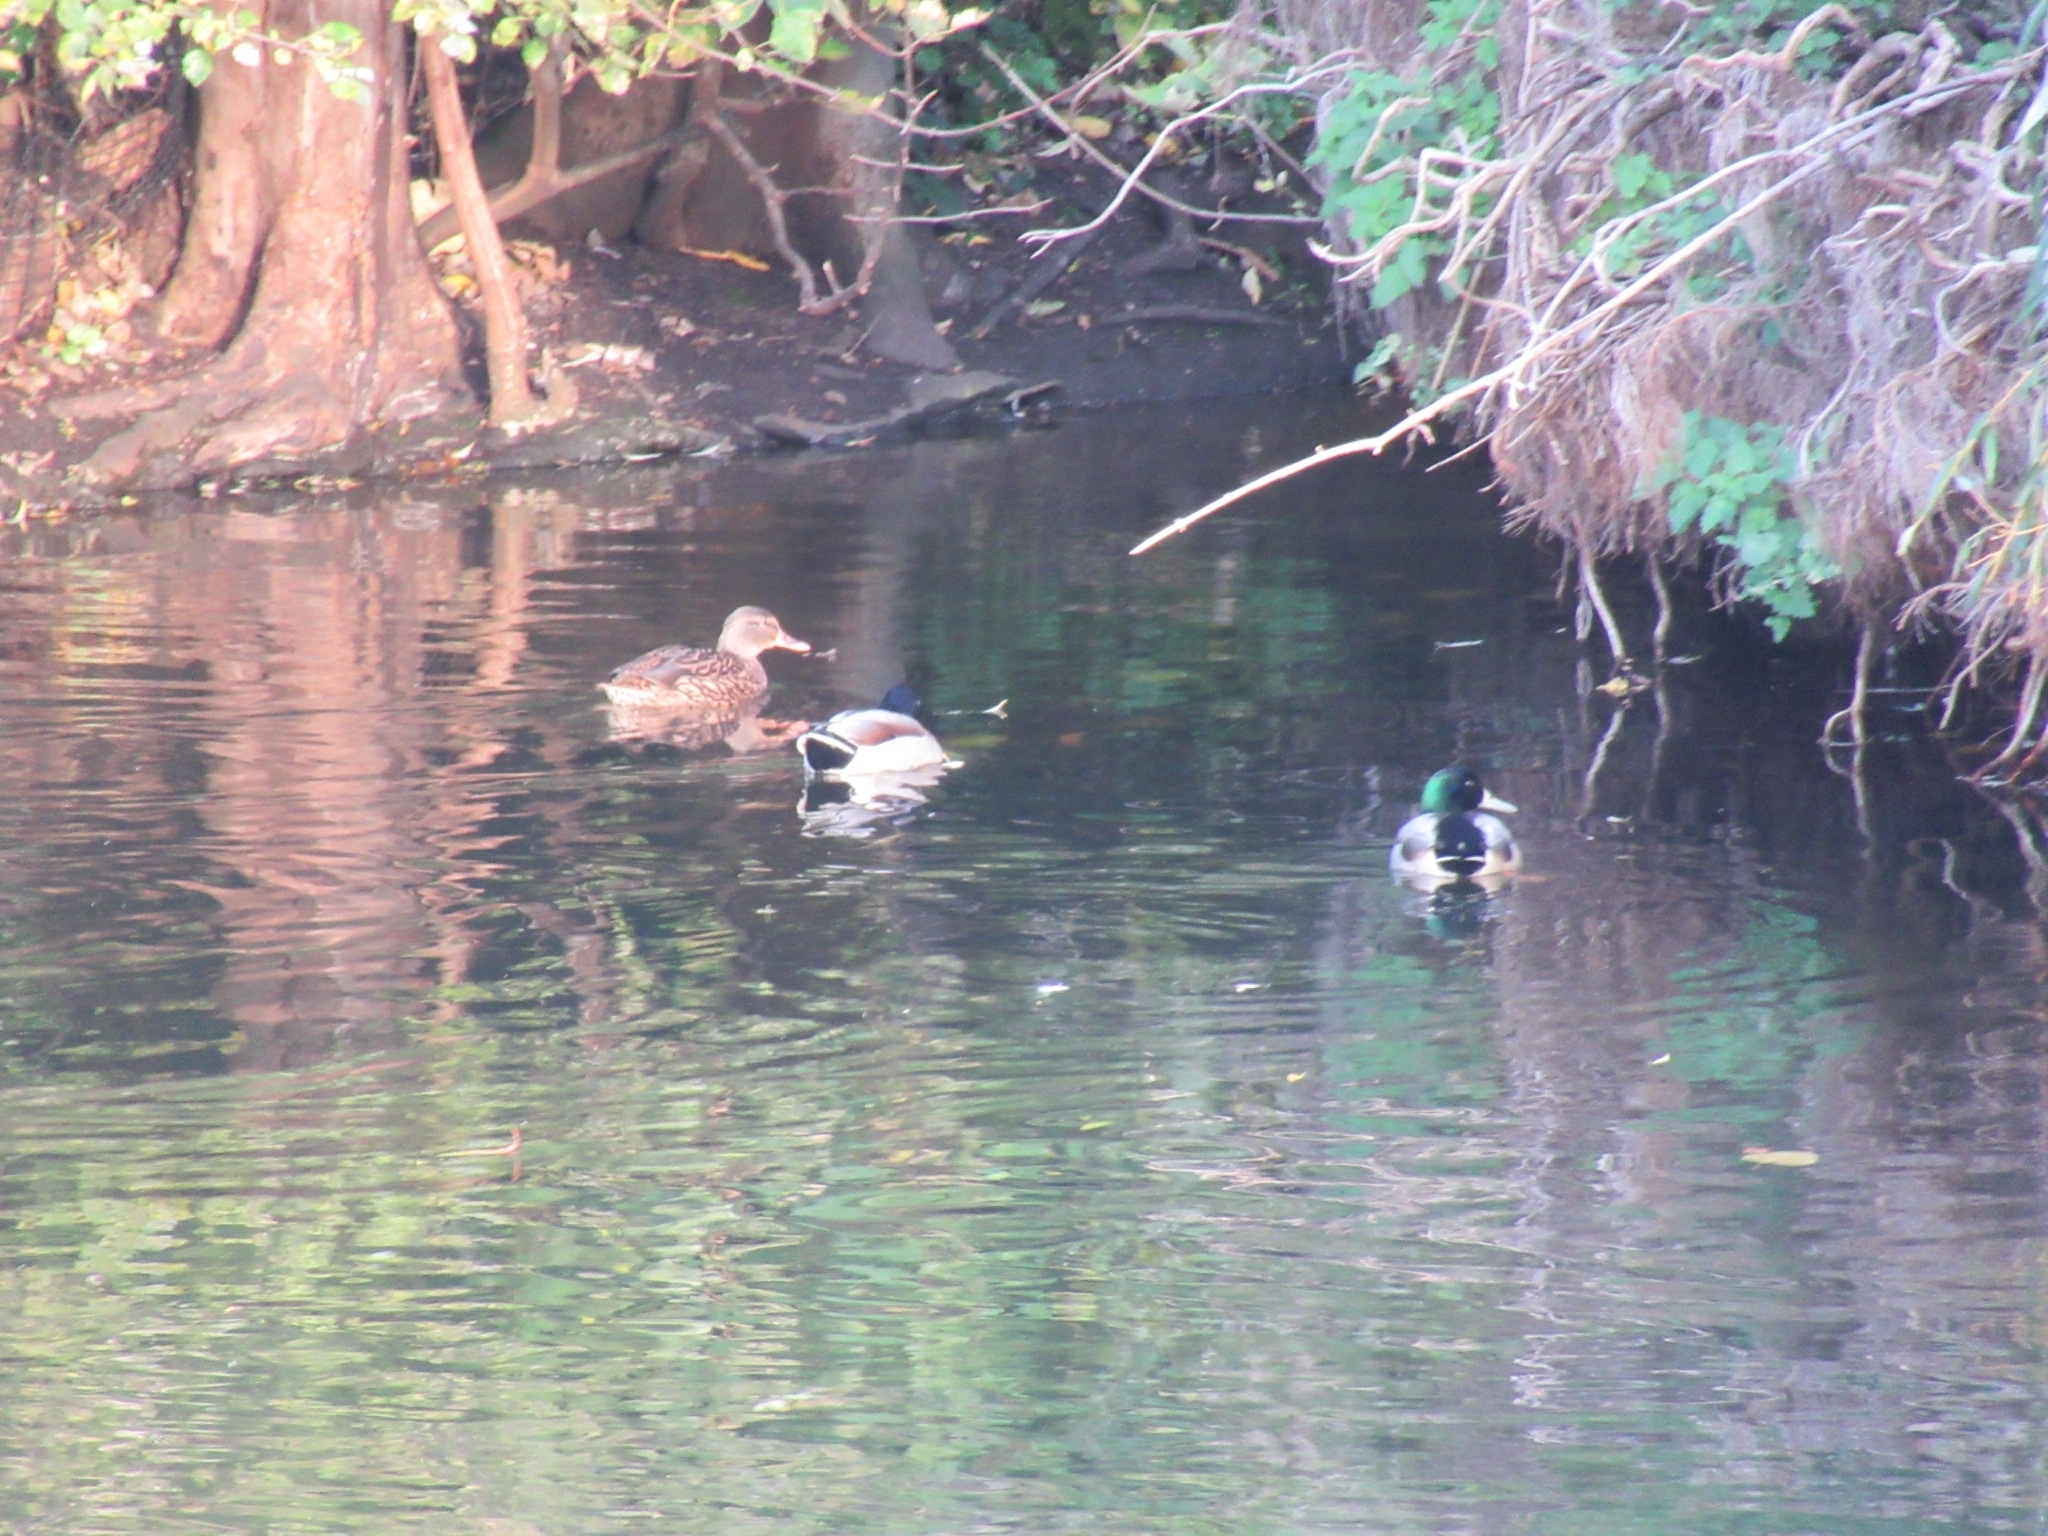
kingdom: Animalia
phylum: Chordata
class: Aves
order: Anseriformes
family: Anatidae
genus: Anas
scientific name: Anas platyrhynchos
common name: Mallard
